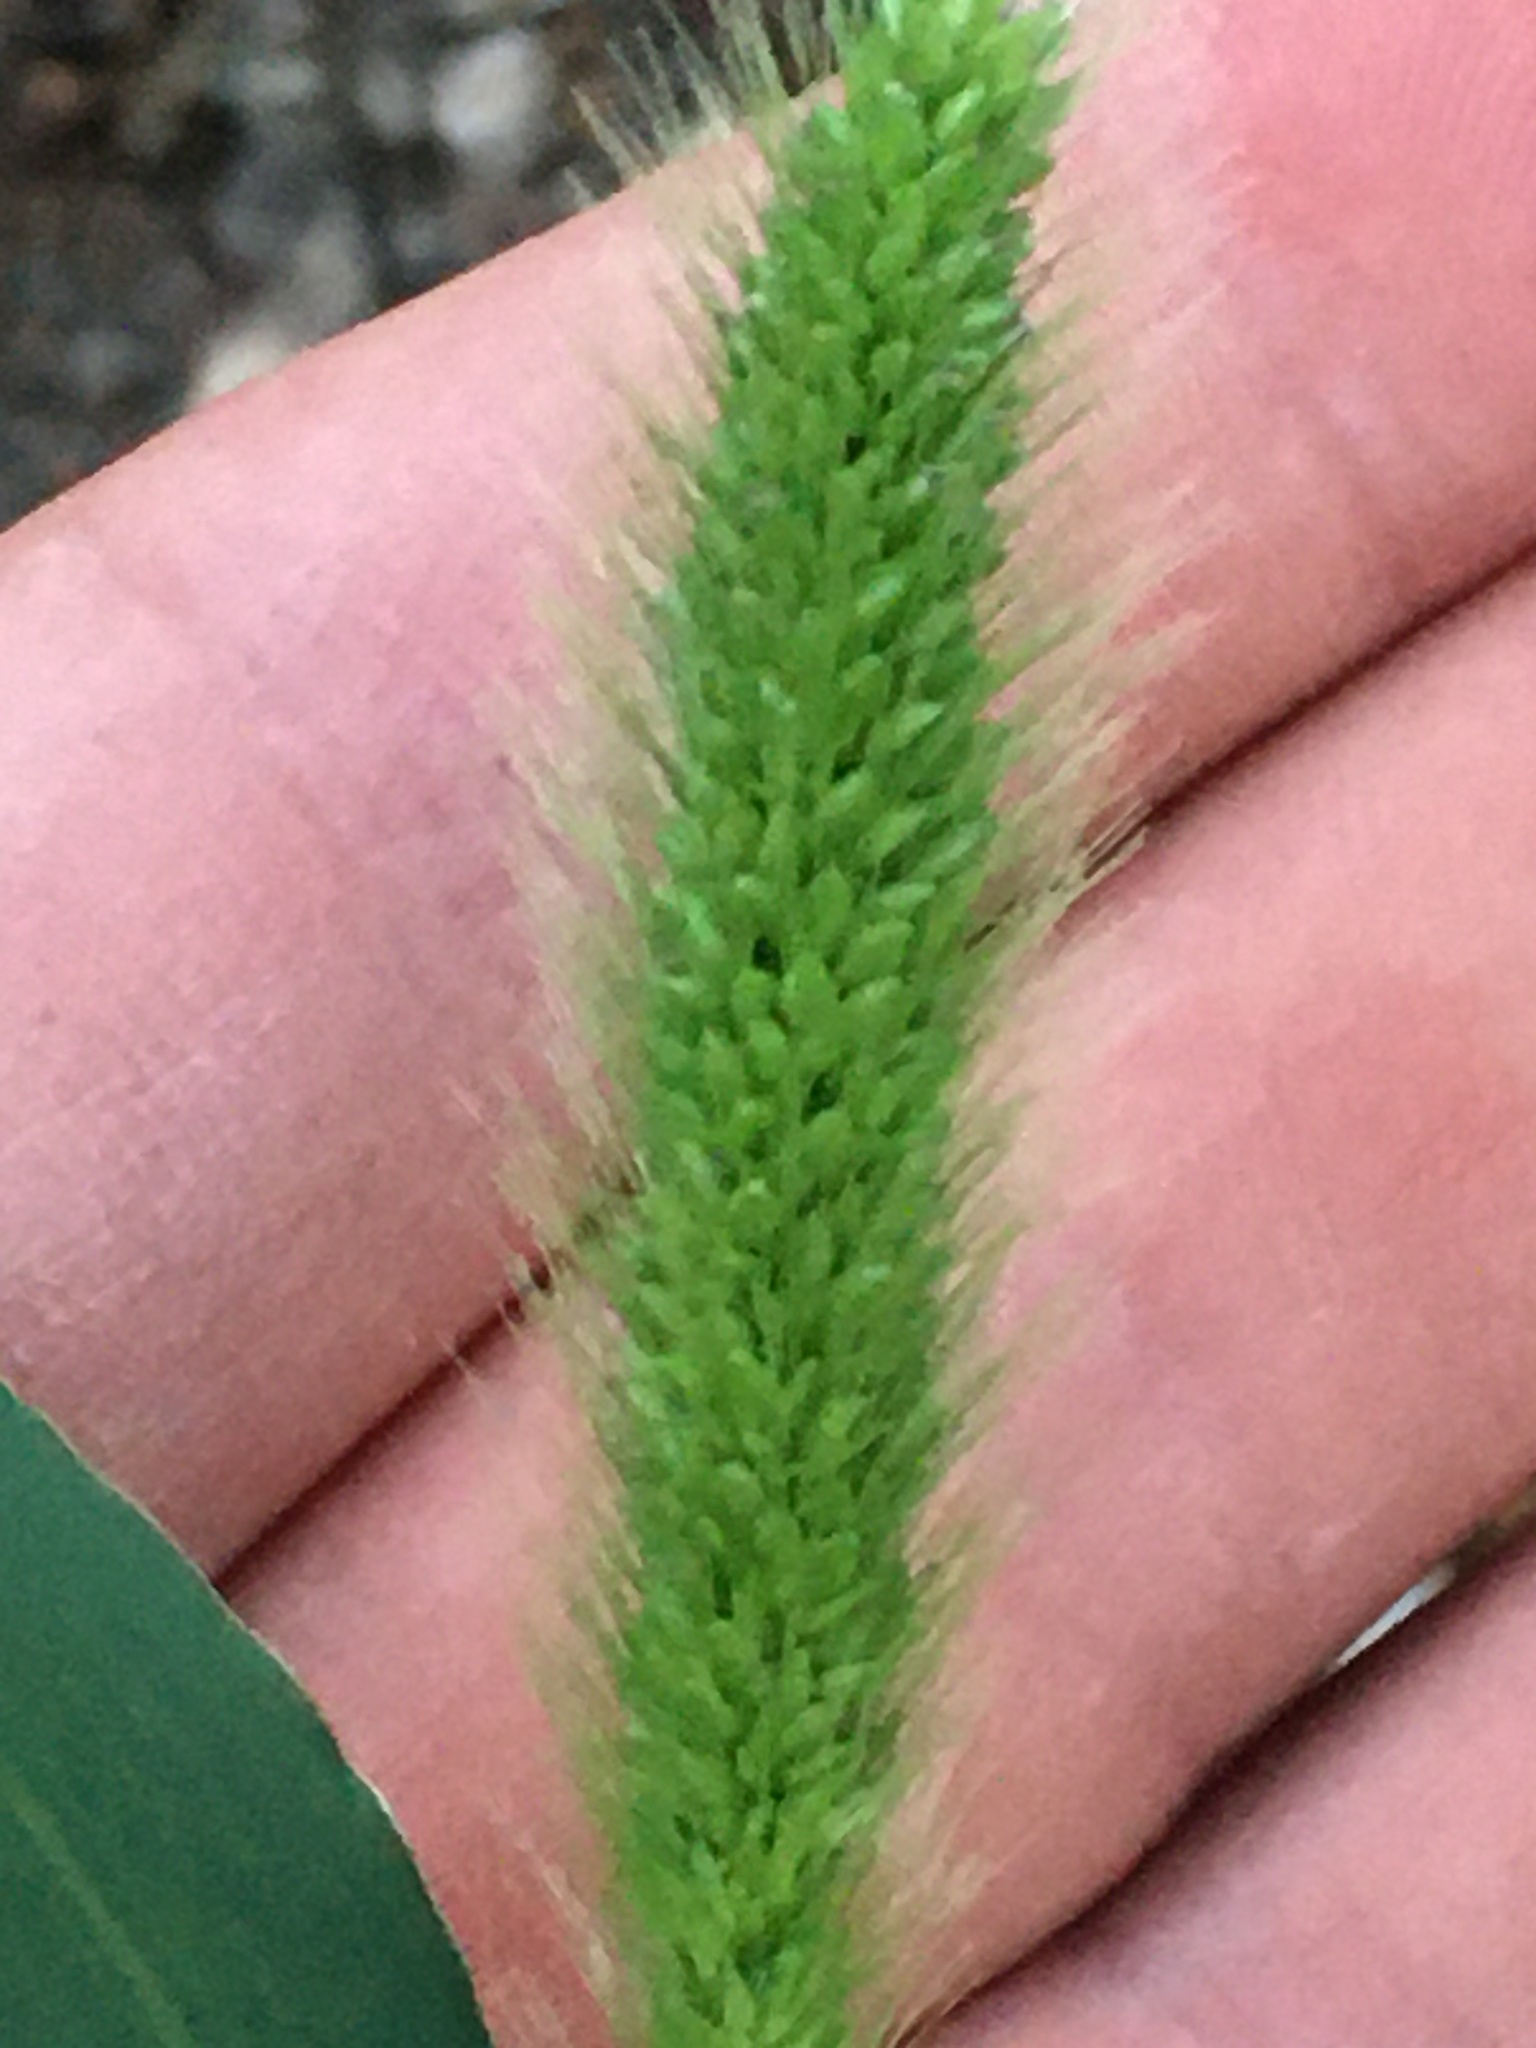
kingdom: Plantae
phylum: Tracheophyta
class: Liliopsida
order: Poales
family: Poaceae
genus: Setaria
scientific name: Setaria viridis
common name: Green bristlegrass
